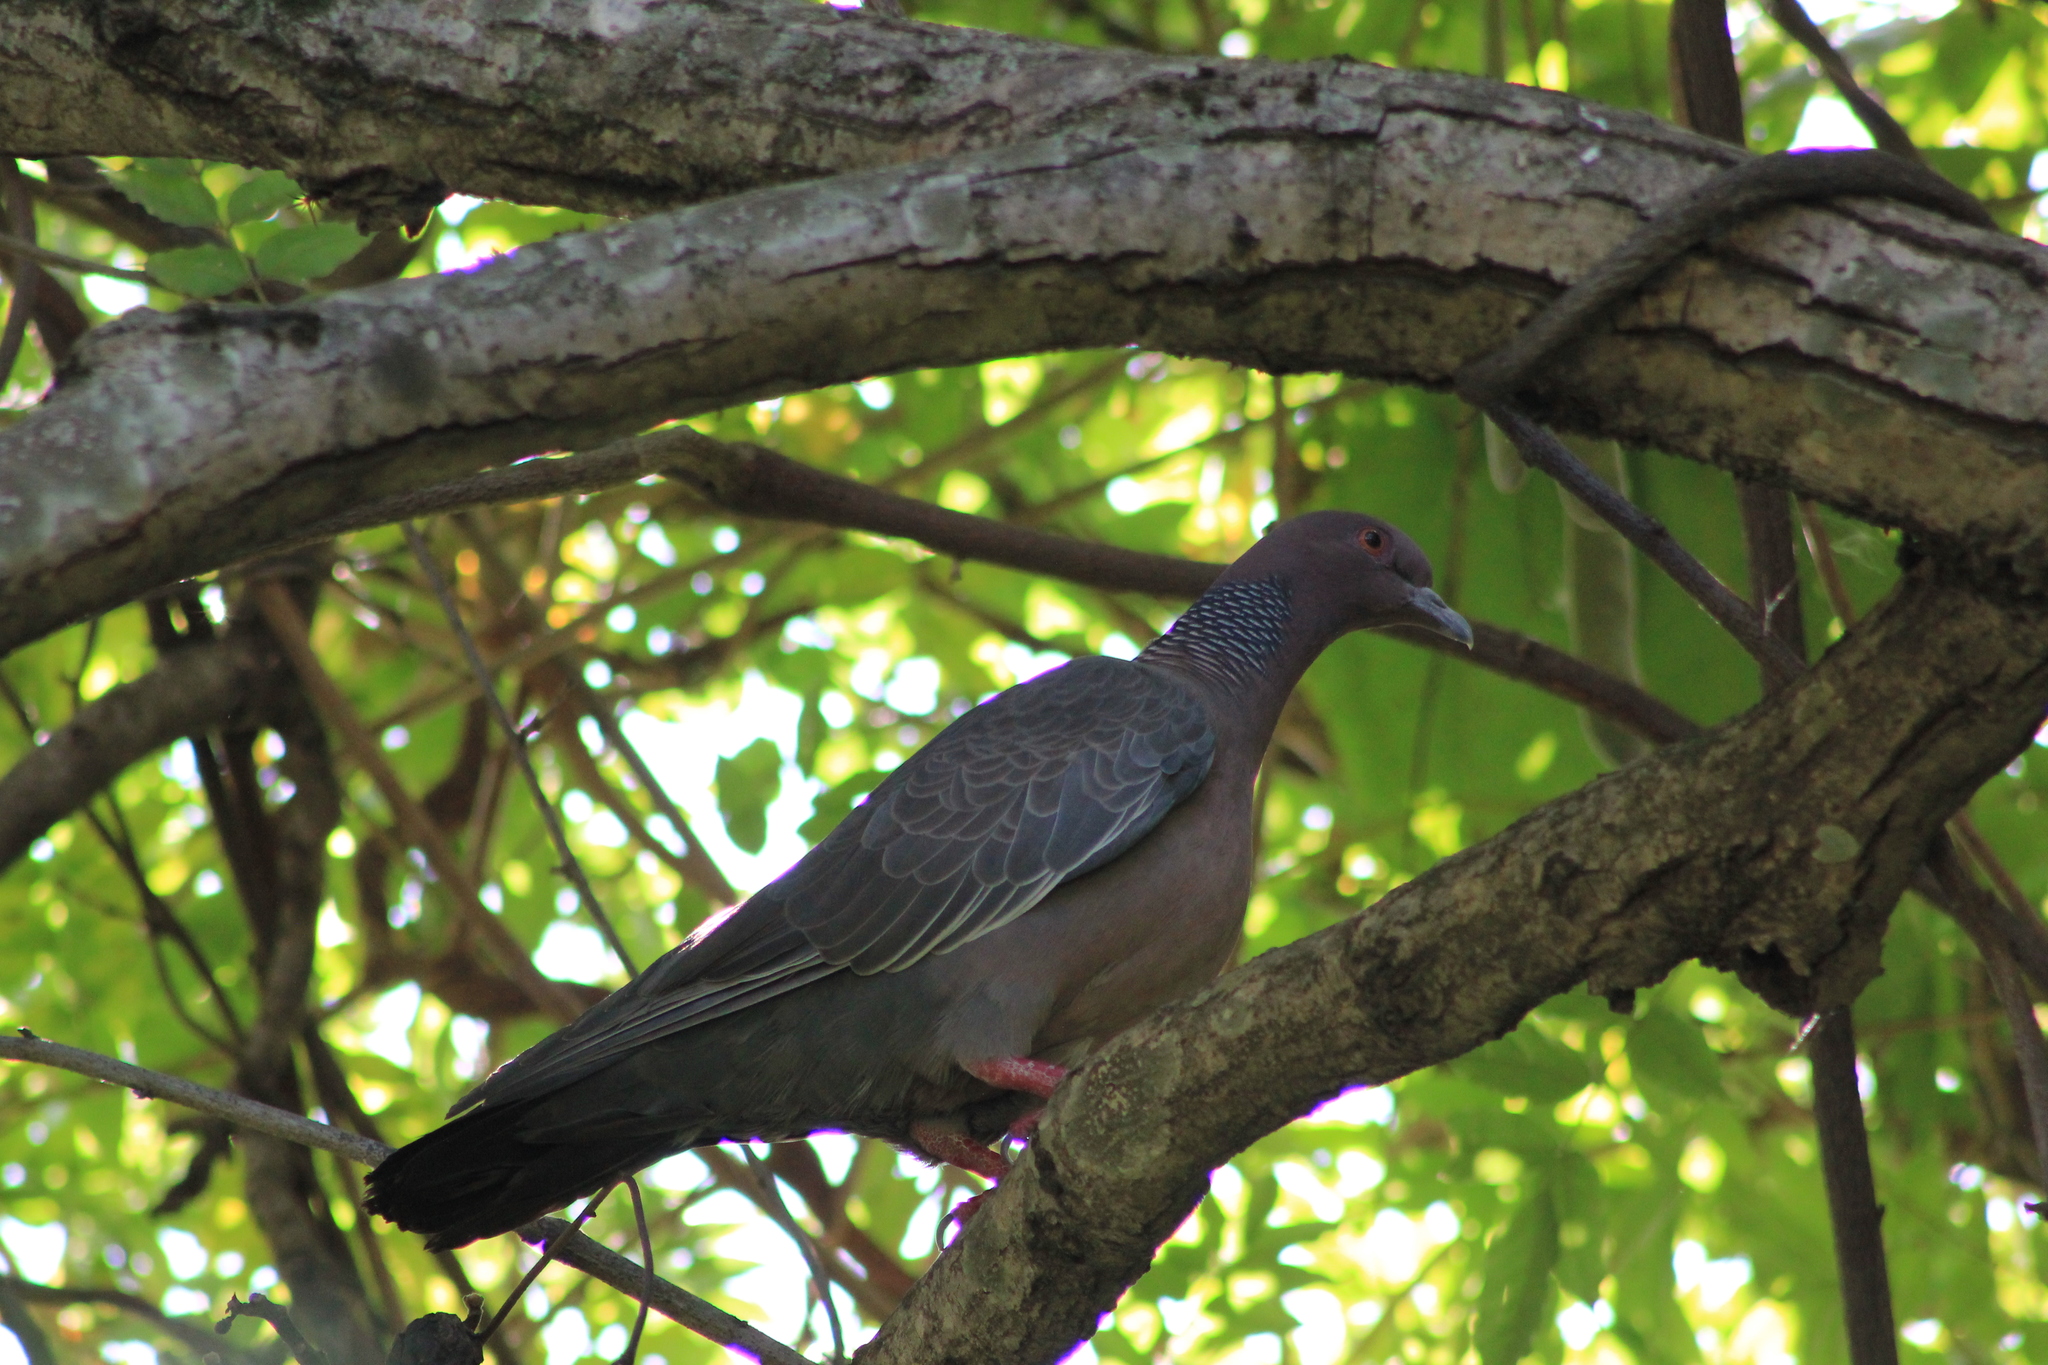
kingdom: Animalia
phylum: Chordata
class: Aves
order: Columbiformes
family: Columbidae
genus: Patagioenas
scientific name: Patagioenas picazuro
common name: Picazuro pigeon
